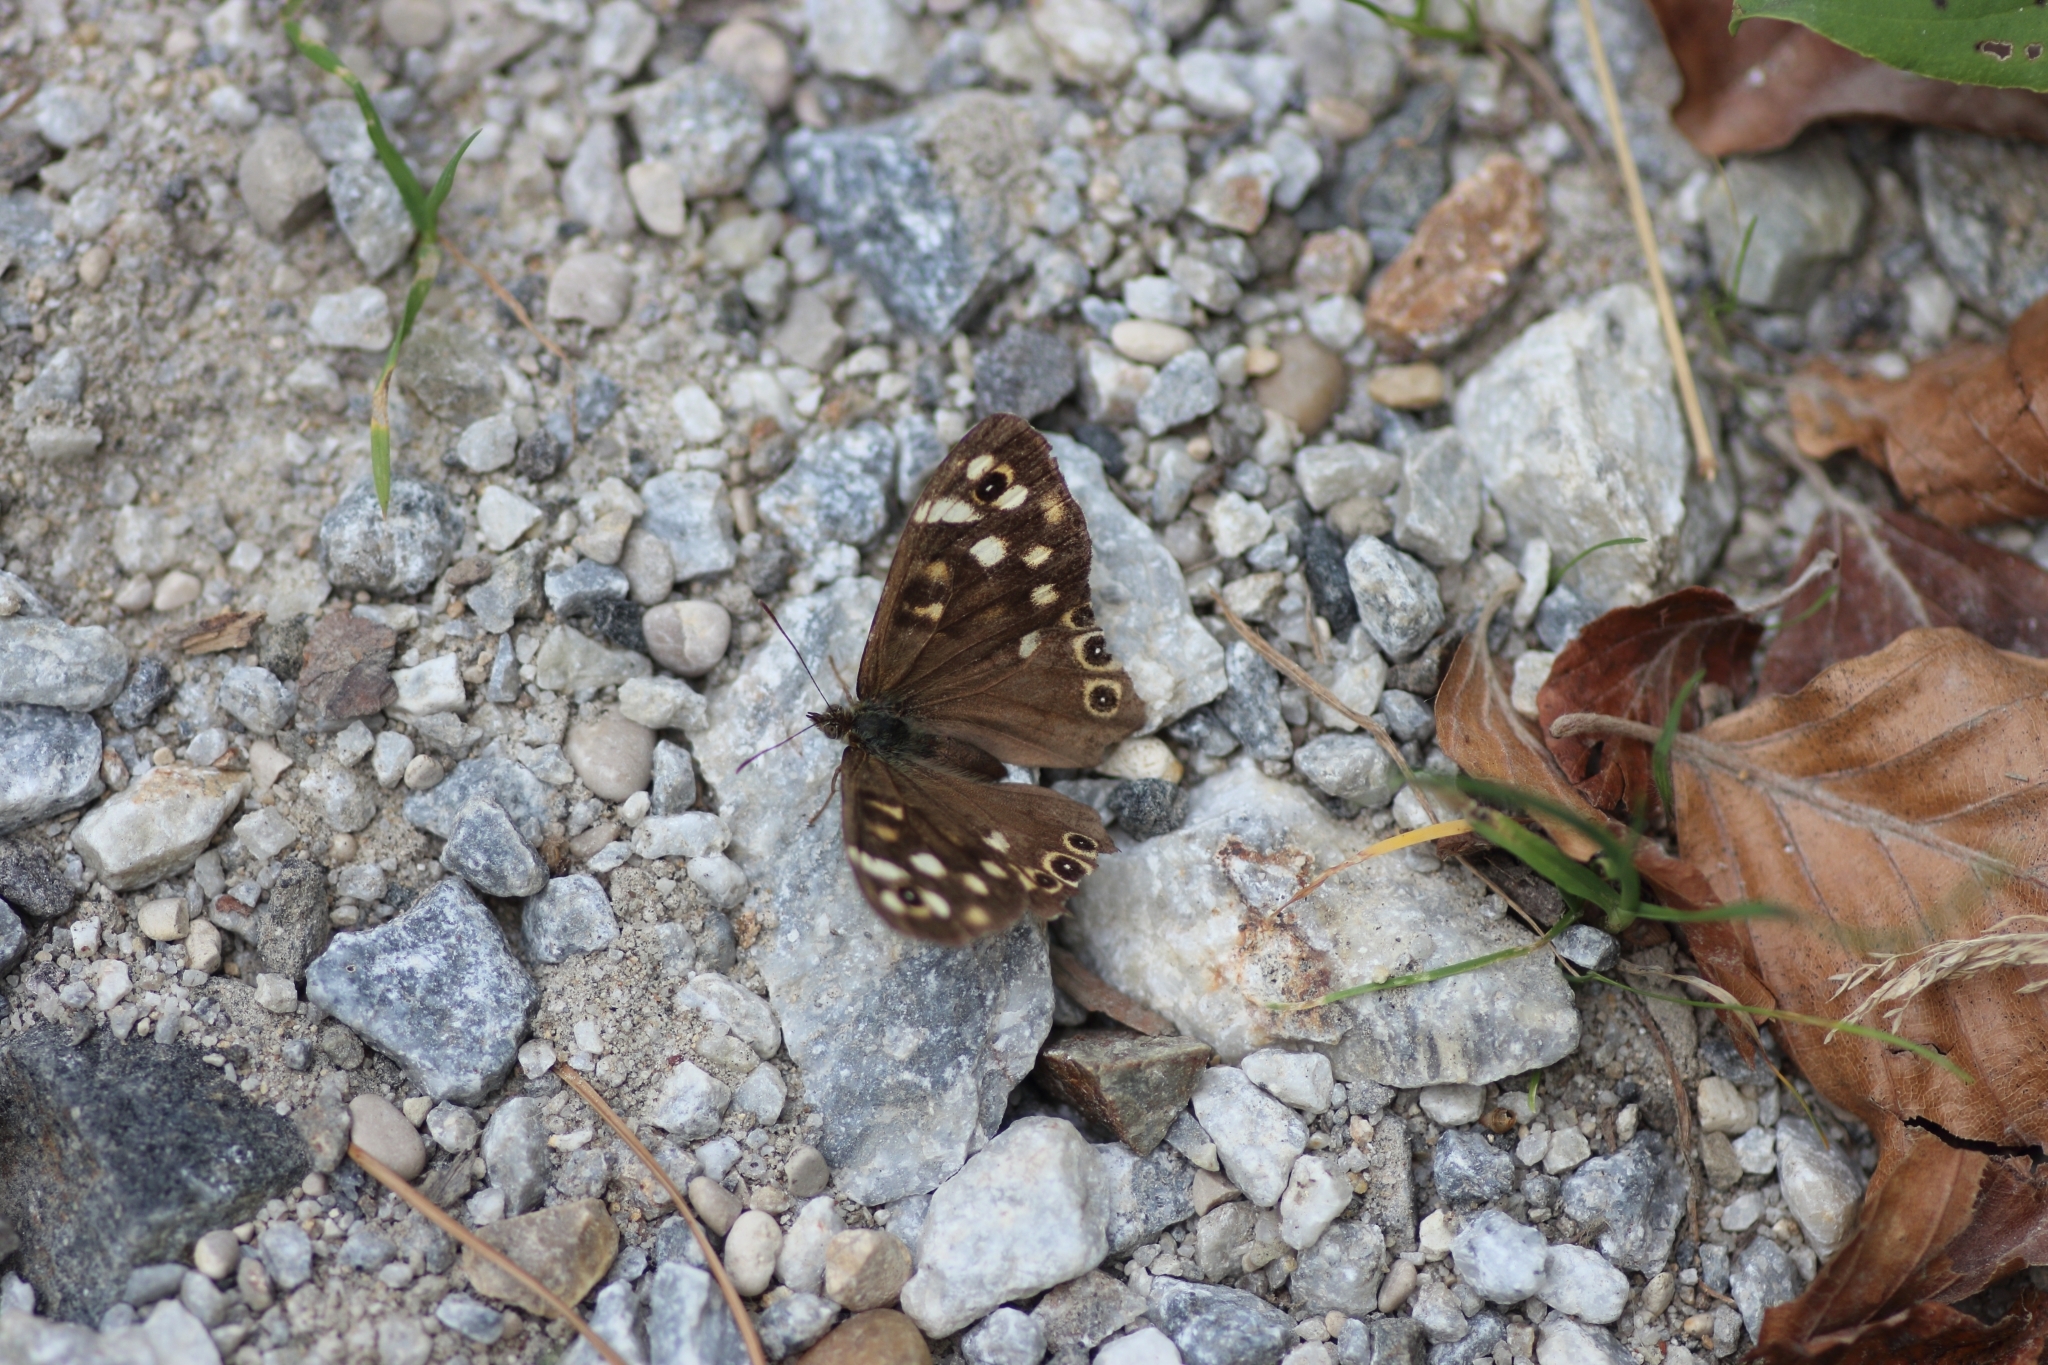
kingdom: Animalia
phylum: Arthropoda
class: Insecta
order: Lepidoptera
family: Nymphalidae
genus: Pararge
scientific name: Pararge aegeria
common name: Speckled wood
